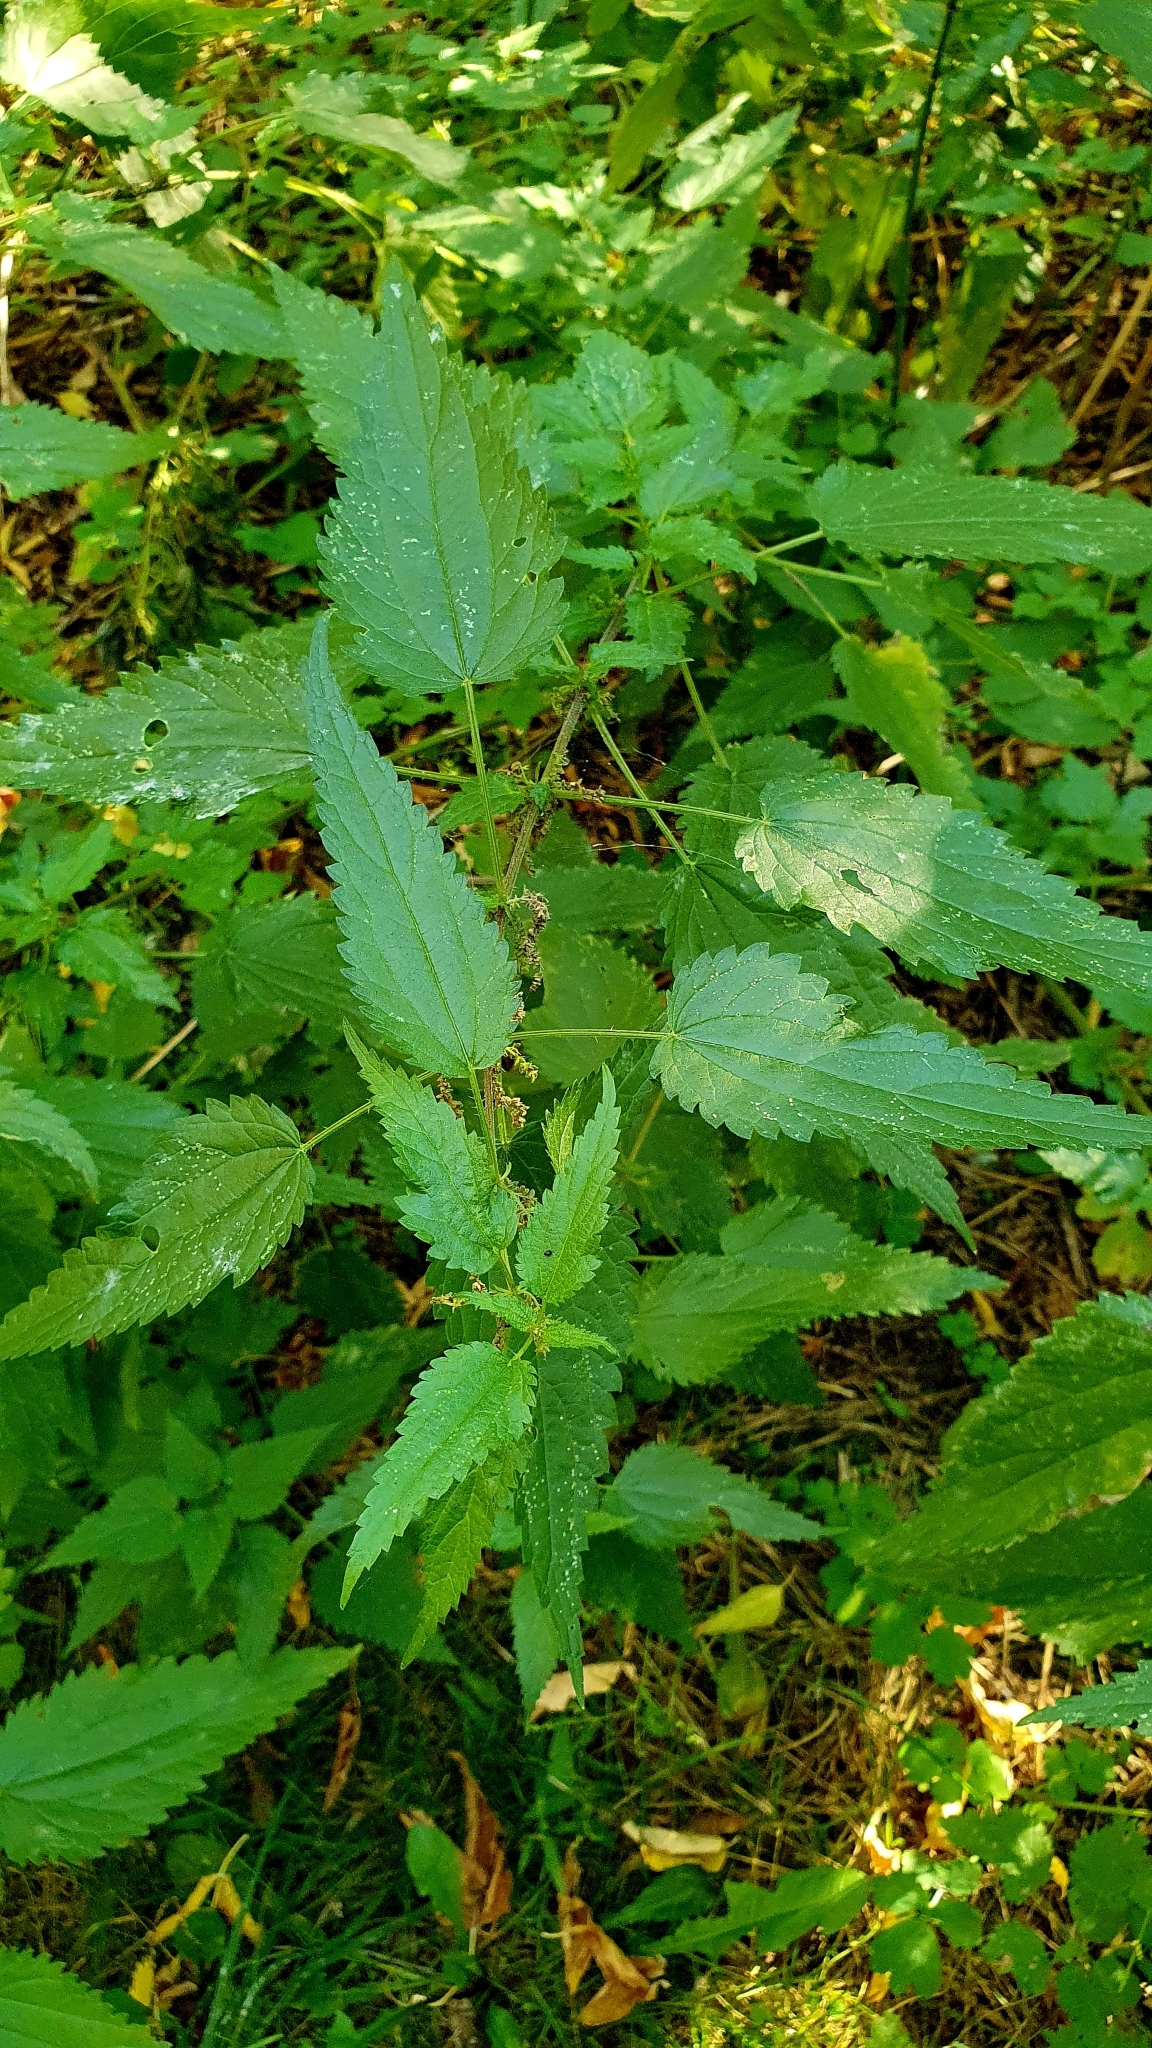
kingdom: Plantae
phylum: Tracheophyta
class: Magnoliopsida
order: Rosales
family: Urticaceae
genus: Urtica
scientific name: Urtica dioica
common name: Common nettle
